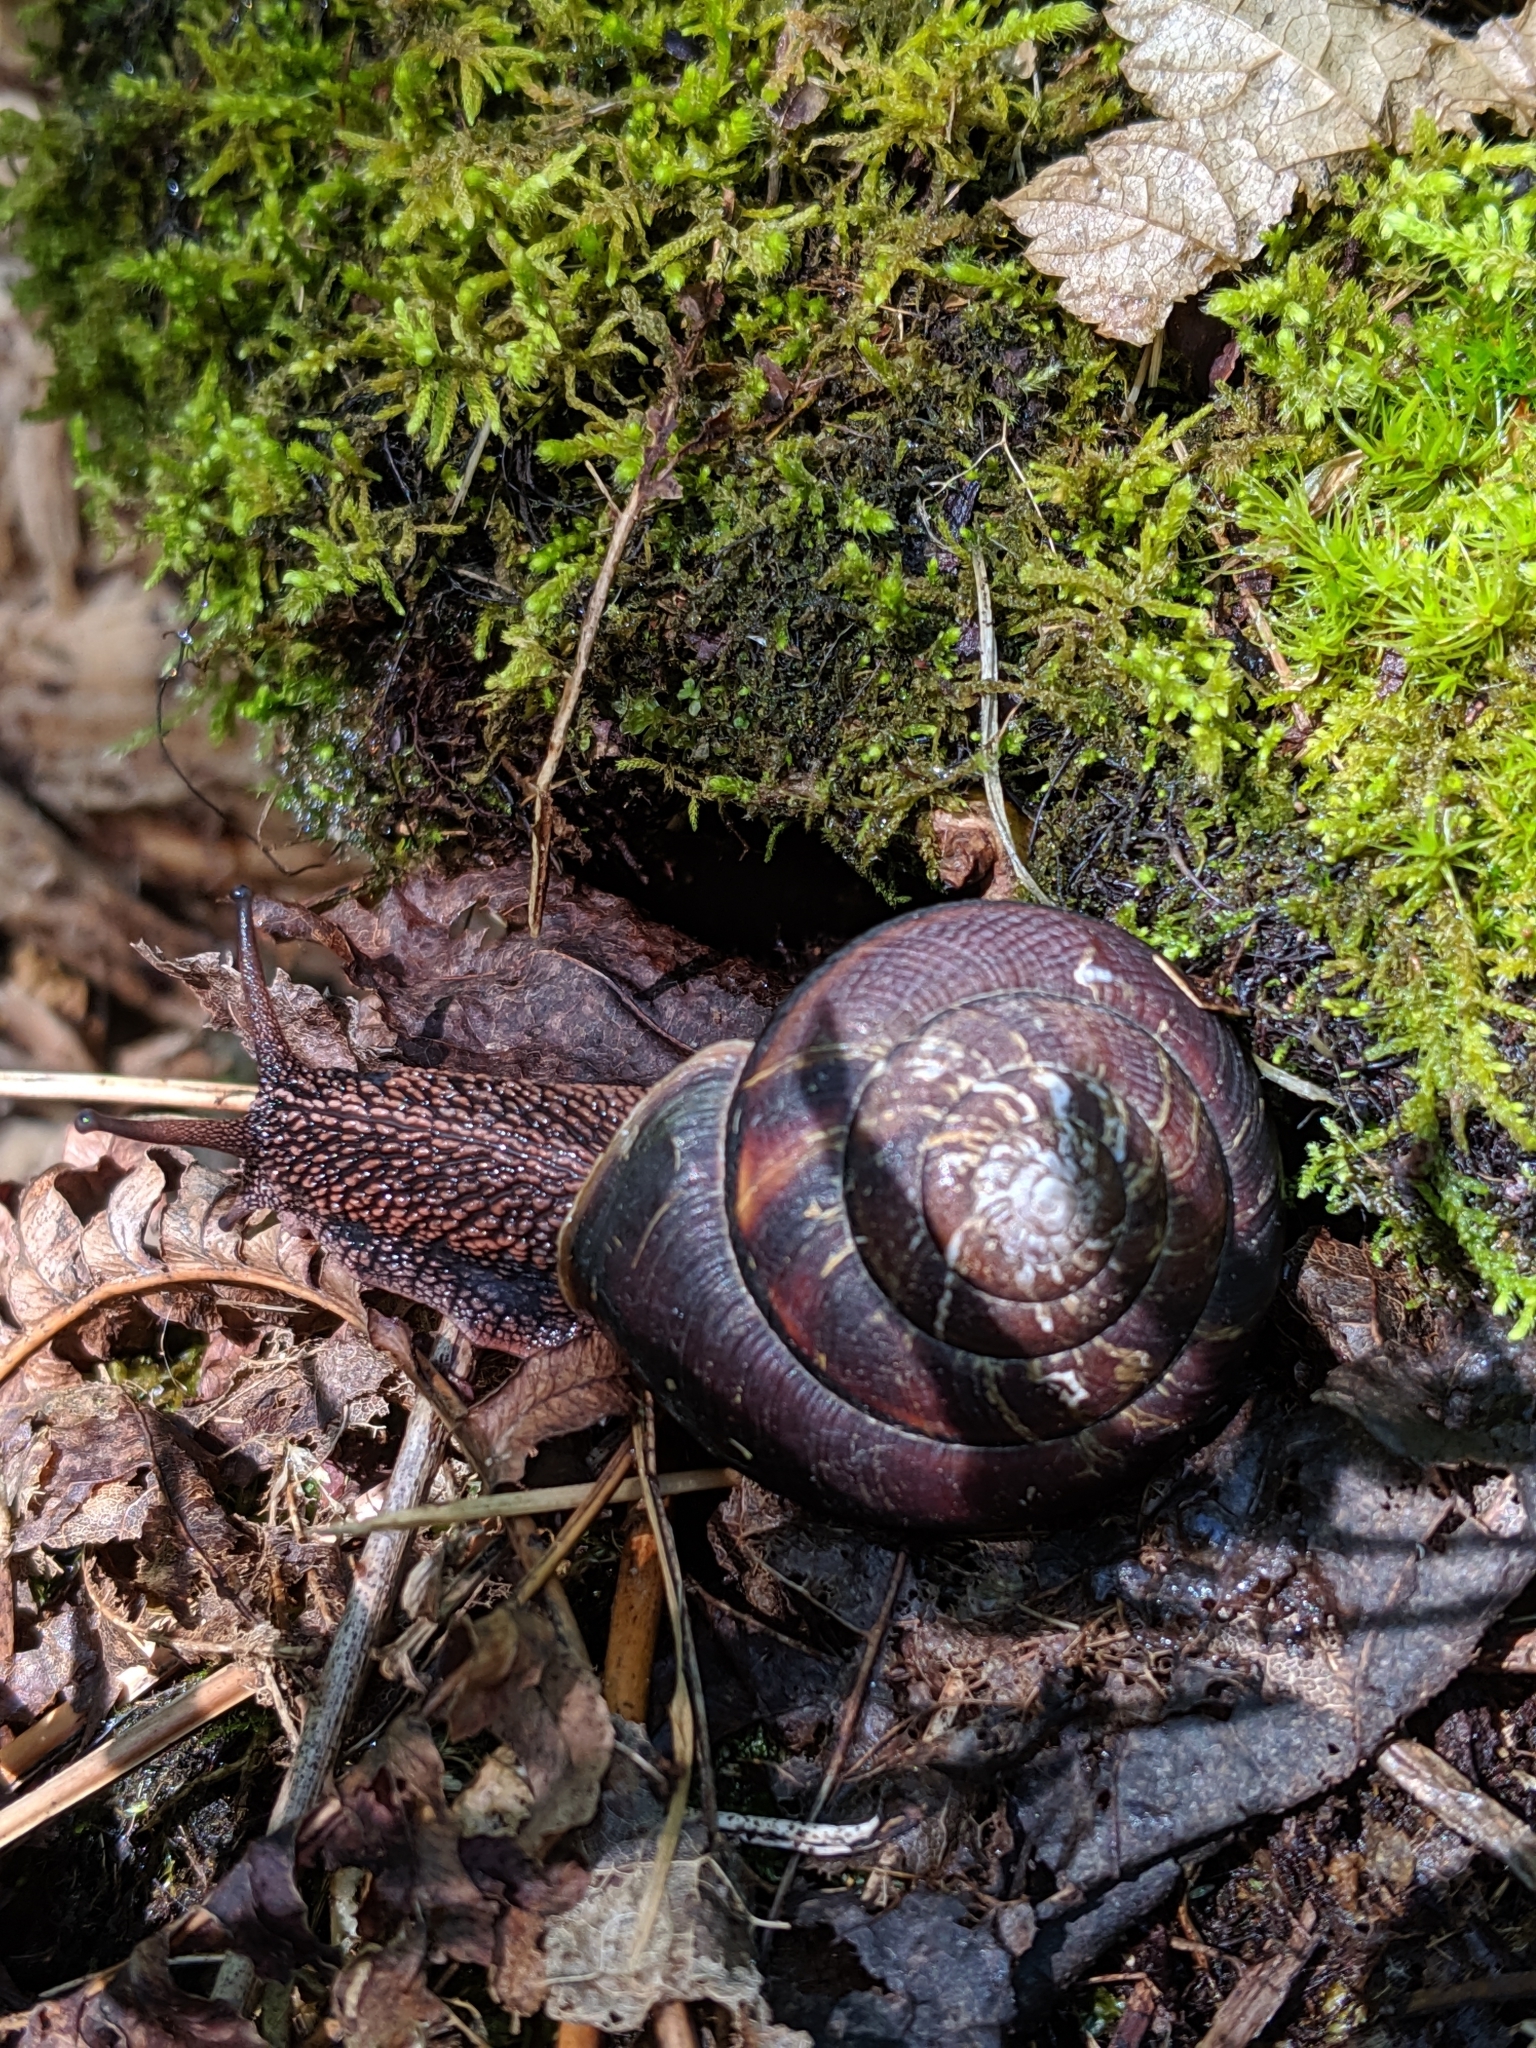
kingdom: Animalia
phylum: Mollusca
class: Gastropoda
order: Stylommatophora
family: Xanthonychidae
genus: Monadenia
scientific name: Monadenia fidelis
